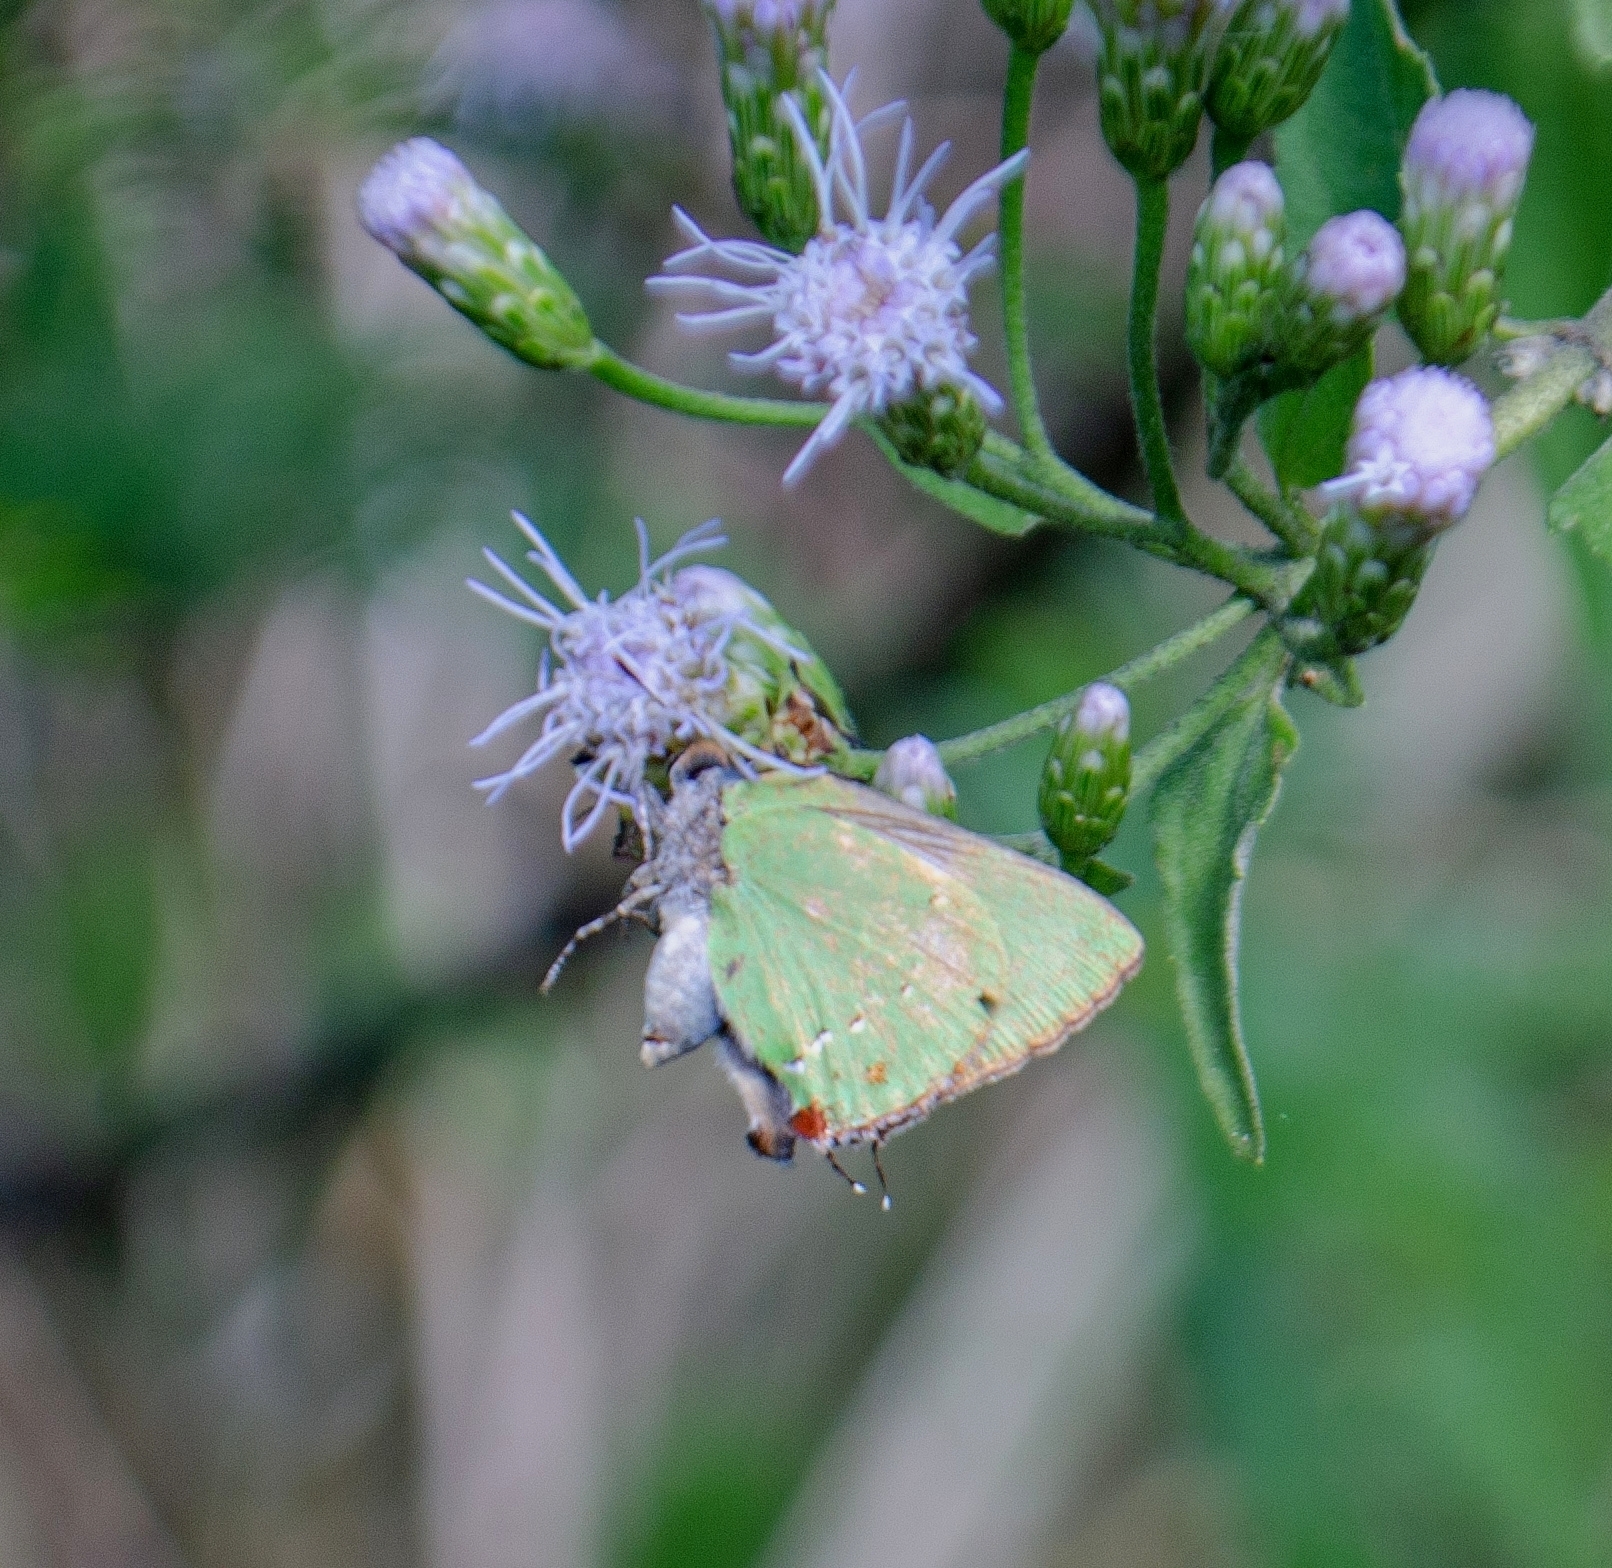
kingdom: Animalia
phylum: Arthropoda
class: Insecta
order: Lepidoptera
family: Lycaenidae
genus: Thecla
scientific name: Thecla herodotus
